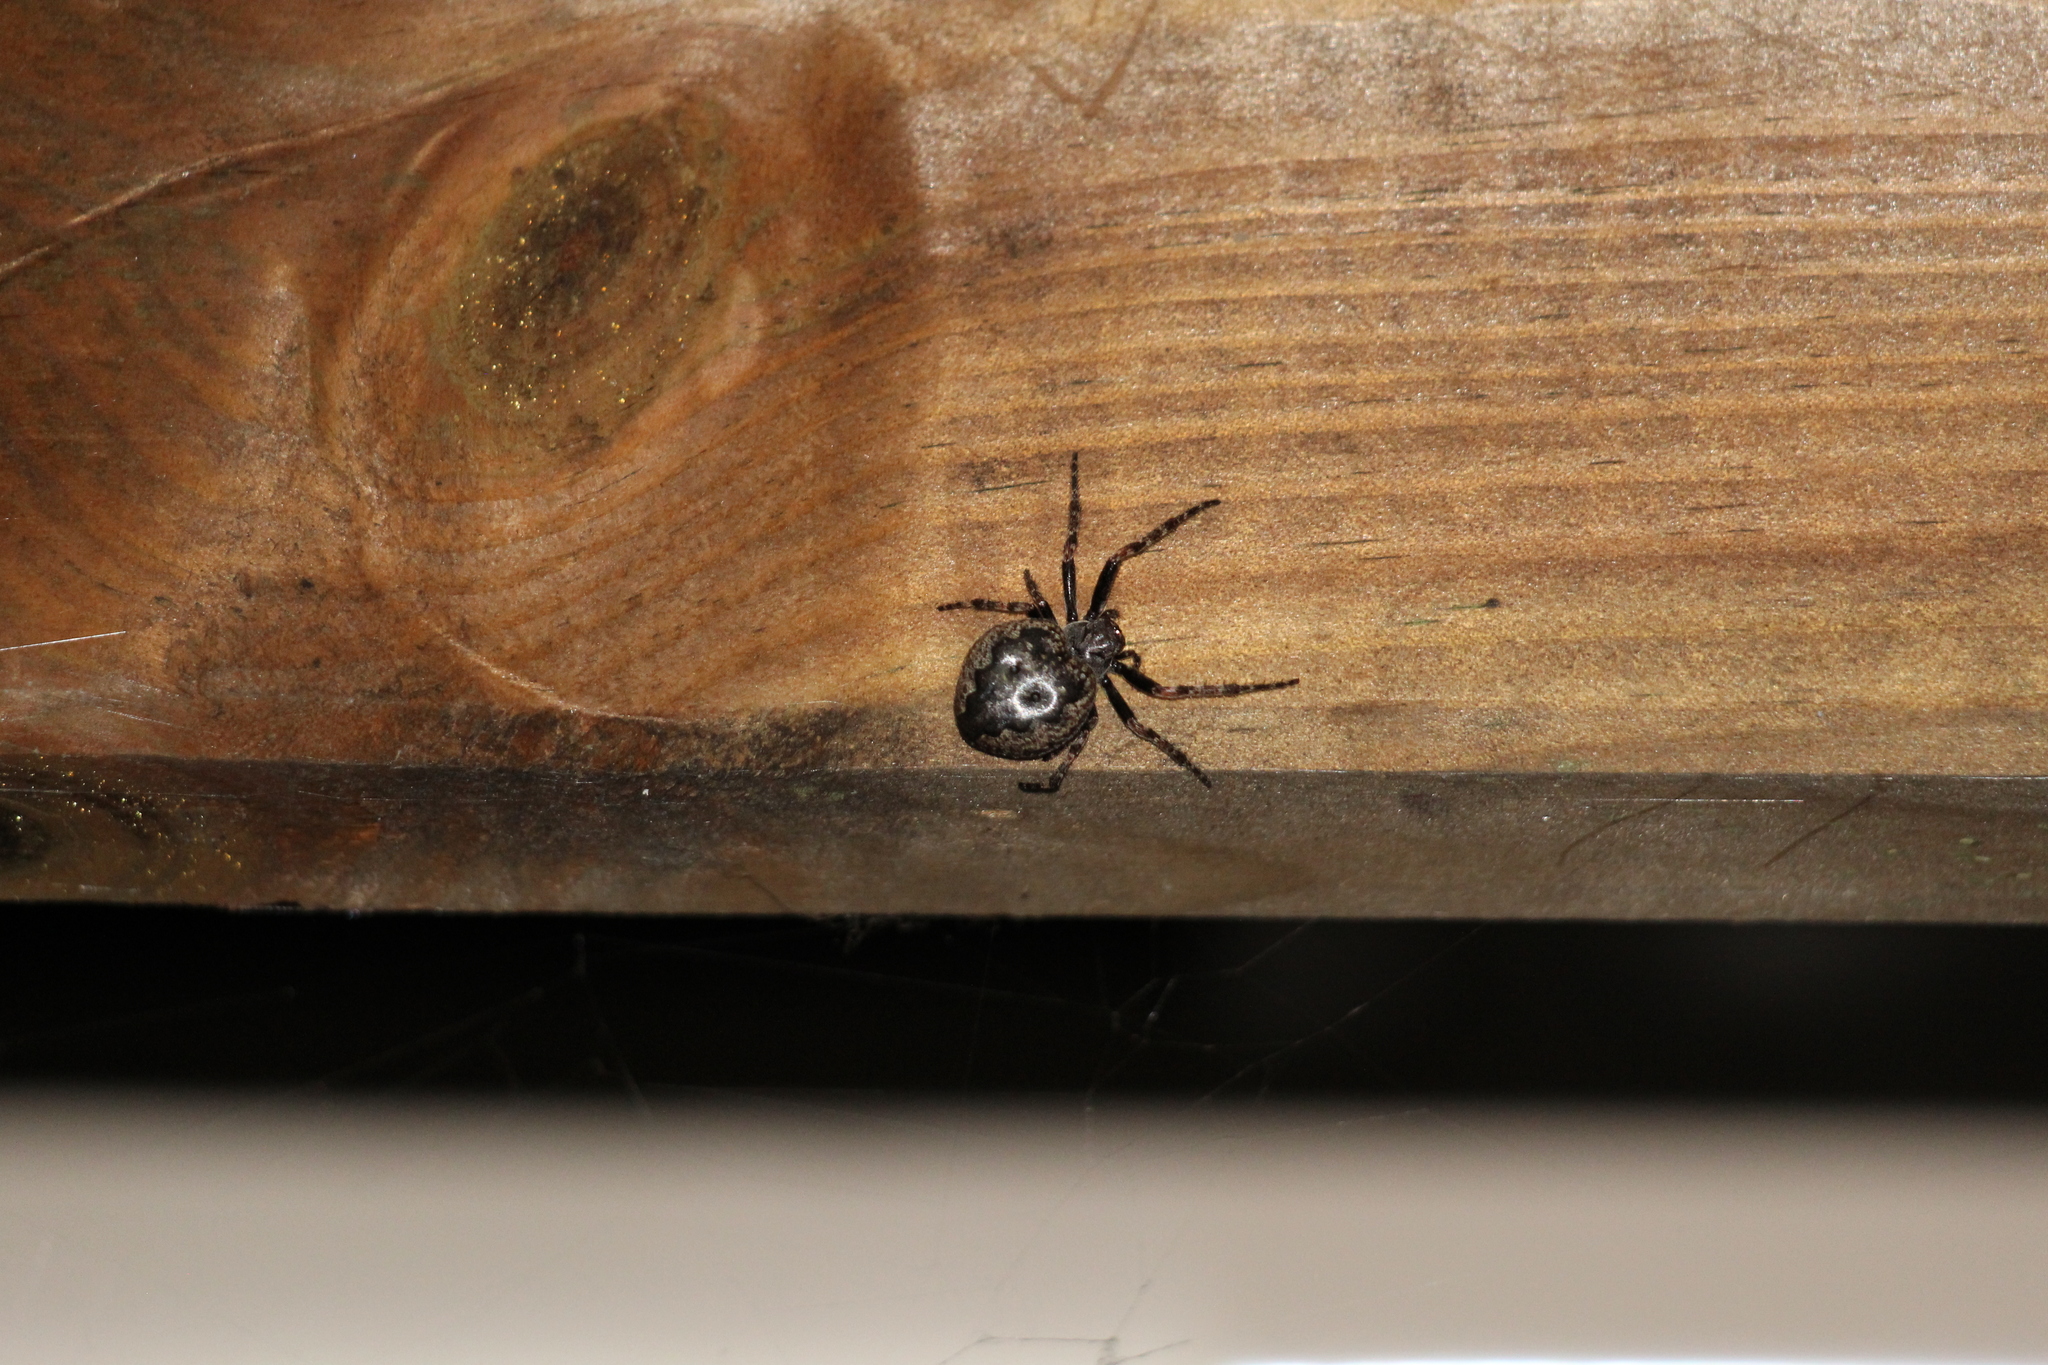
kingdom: Animalia
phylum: Arthropoda
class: Arachnida
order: Araneae
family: Araneidae
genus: Nuctenea
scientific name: Nuctenea umbratica
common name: Toad spider
